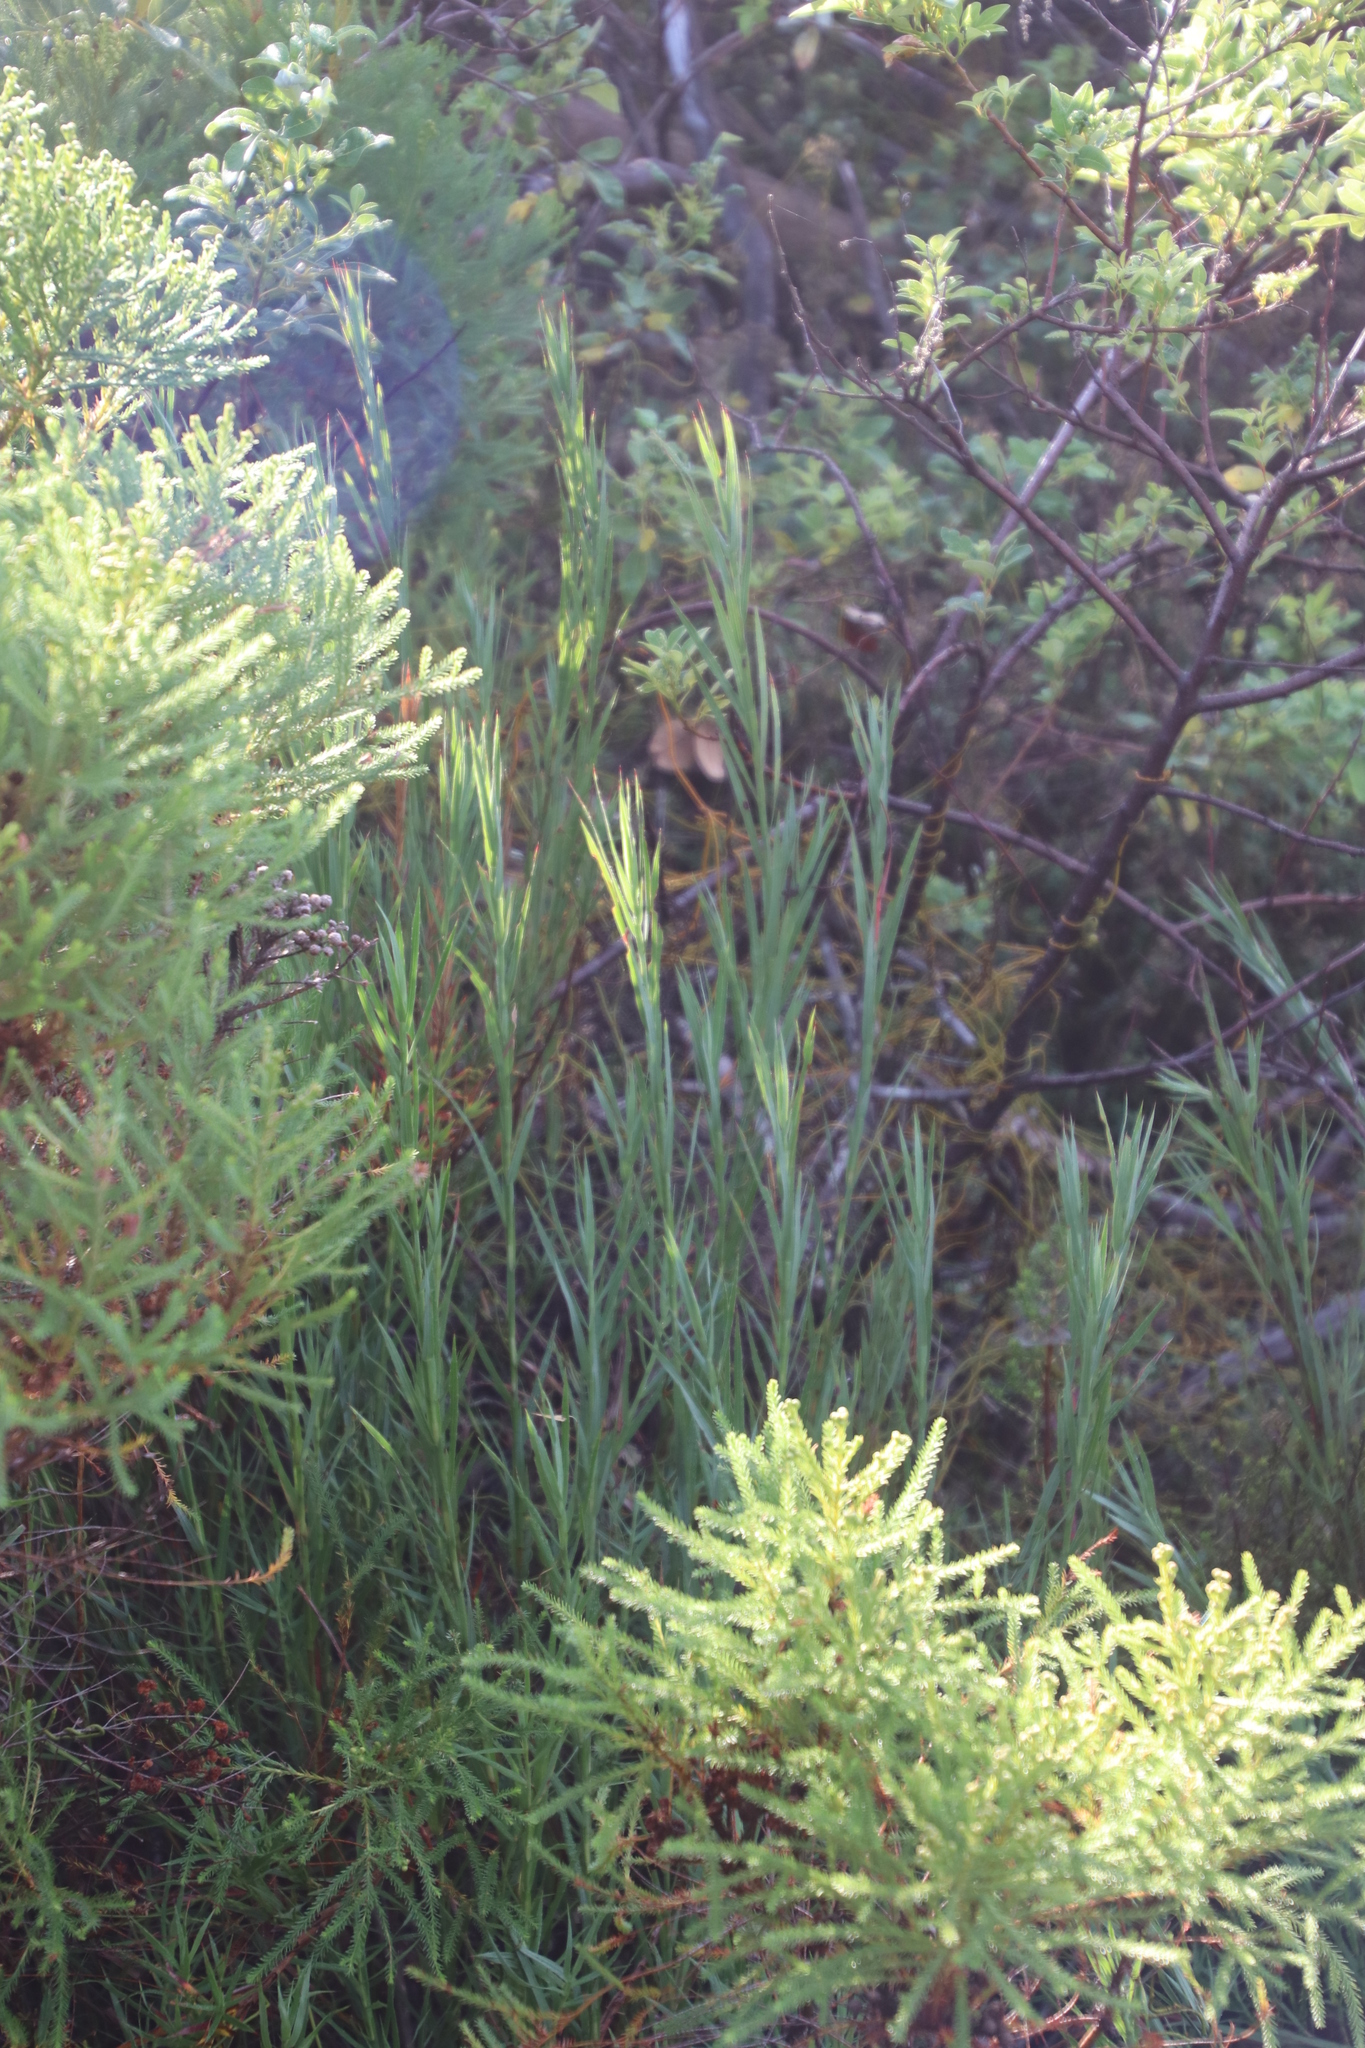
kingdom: Plantae
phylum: Tracheophyta
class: Magnoliopsida
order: Rosales
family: Rosaceae
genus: Cliffortia
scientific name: Cliffortia graminea
